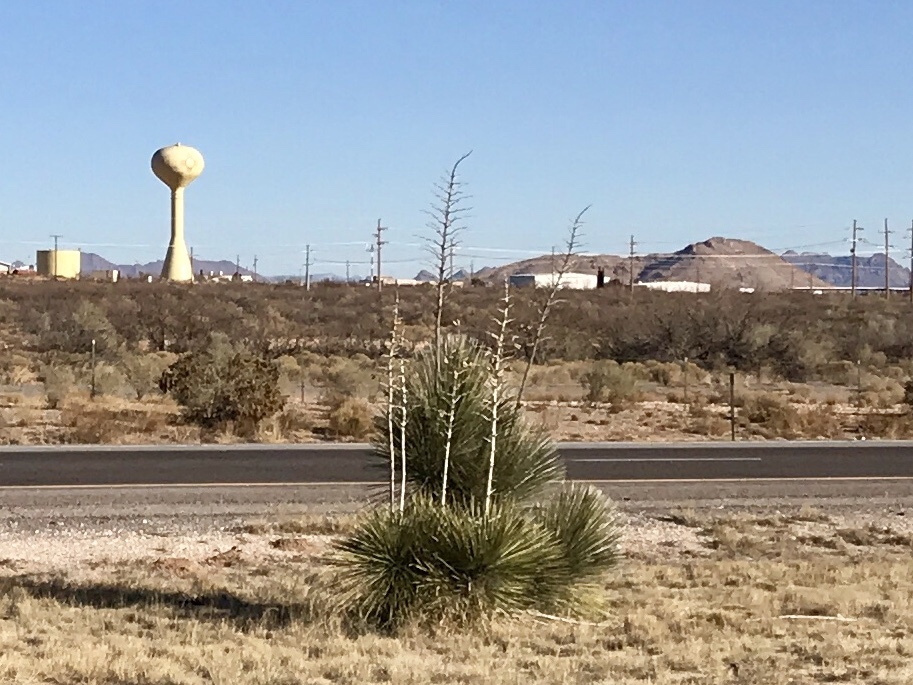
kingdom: Plantae
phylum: Tracheophyta
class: Liliopsida
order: Asparagales
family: Asparagaceae
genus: Yucca
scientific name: Yucca elata
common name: Palmella
